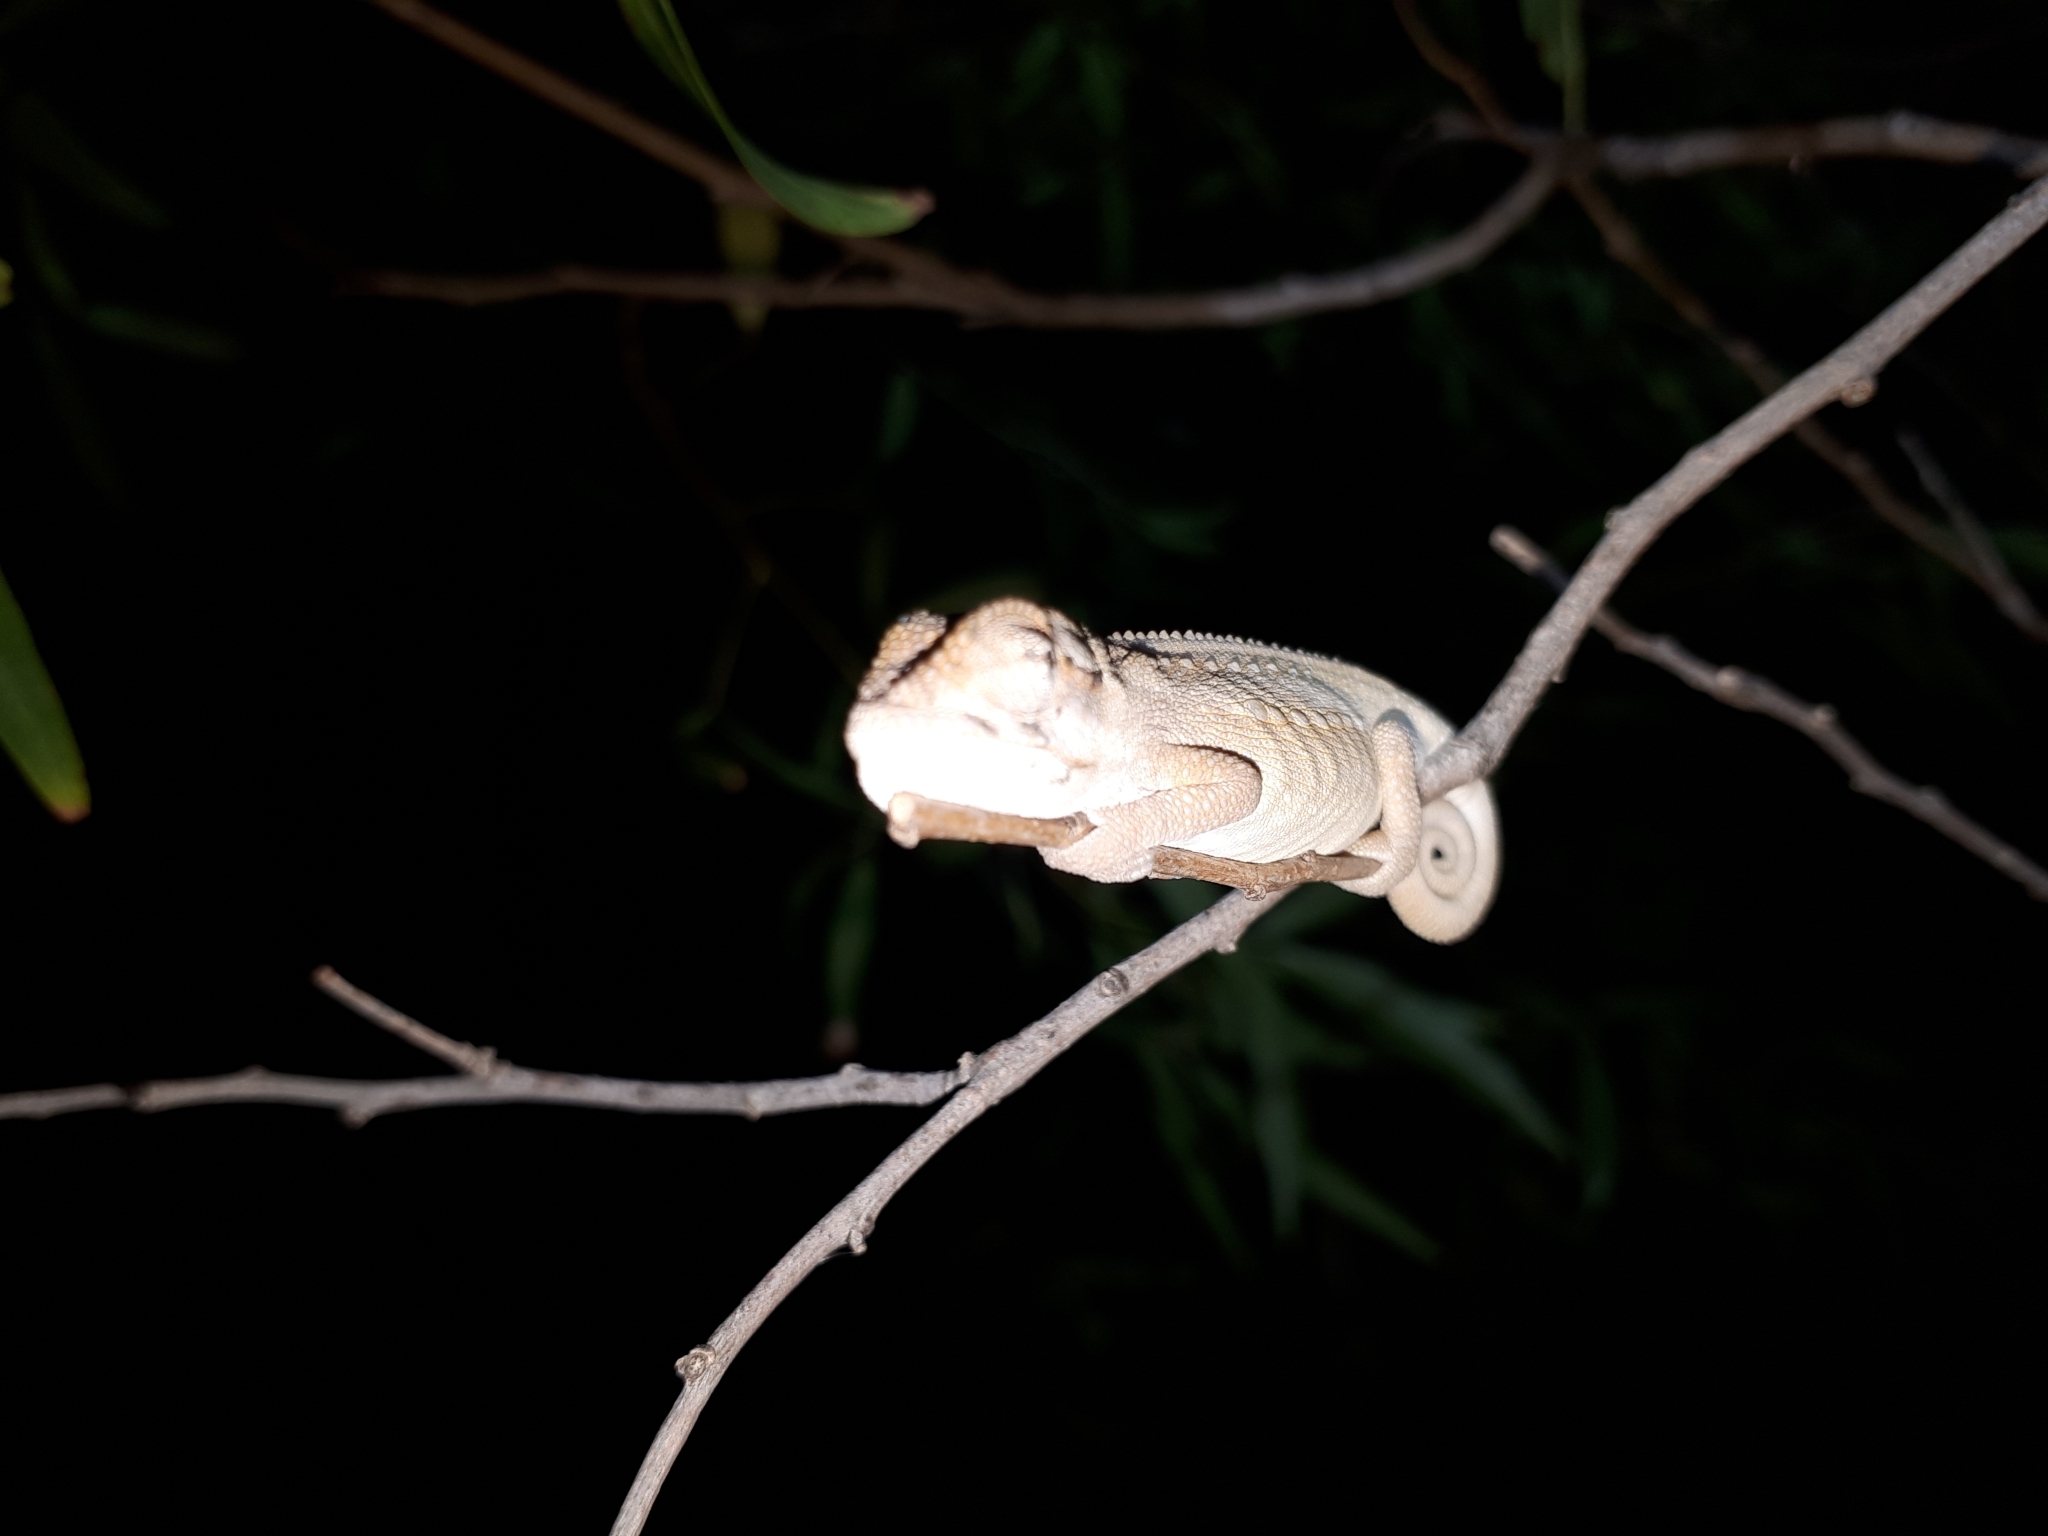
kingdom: Animalia
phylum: Chordata
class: Squamata
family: Chamaeleonidae
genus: Bradypodion
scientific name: Bradypodion pumilum
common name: Cape dwarf chameleon
